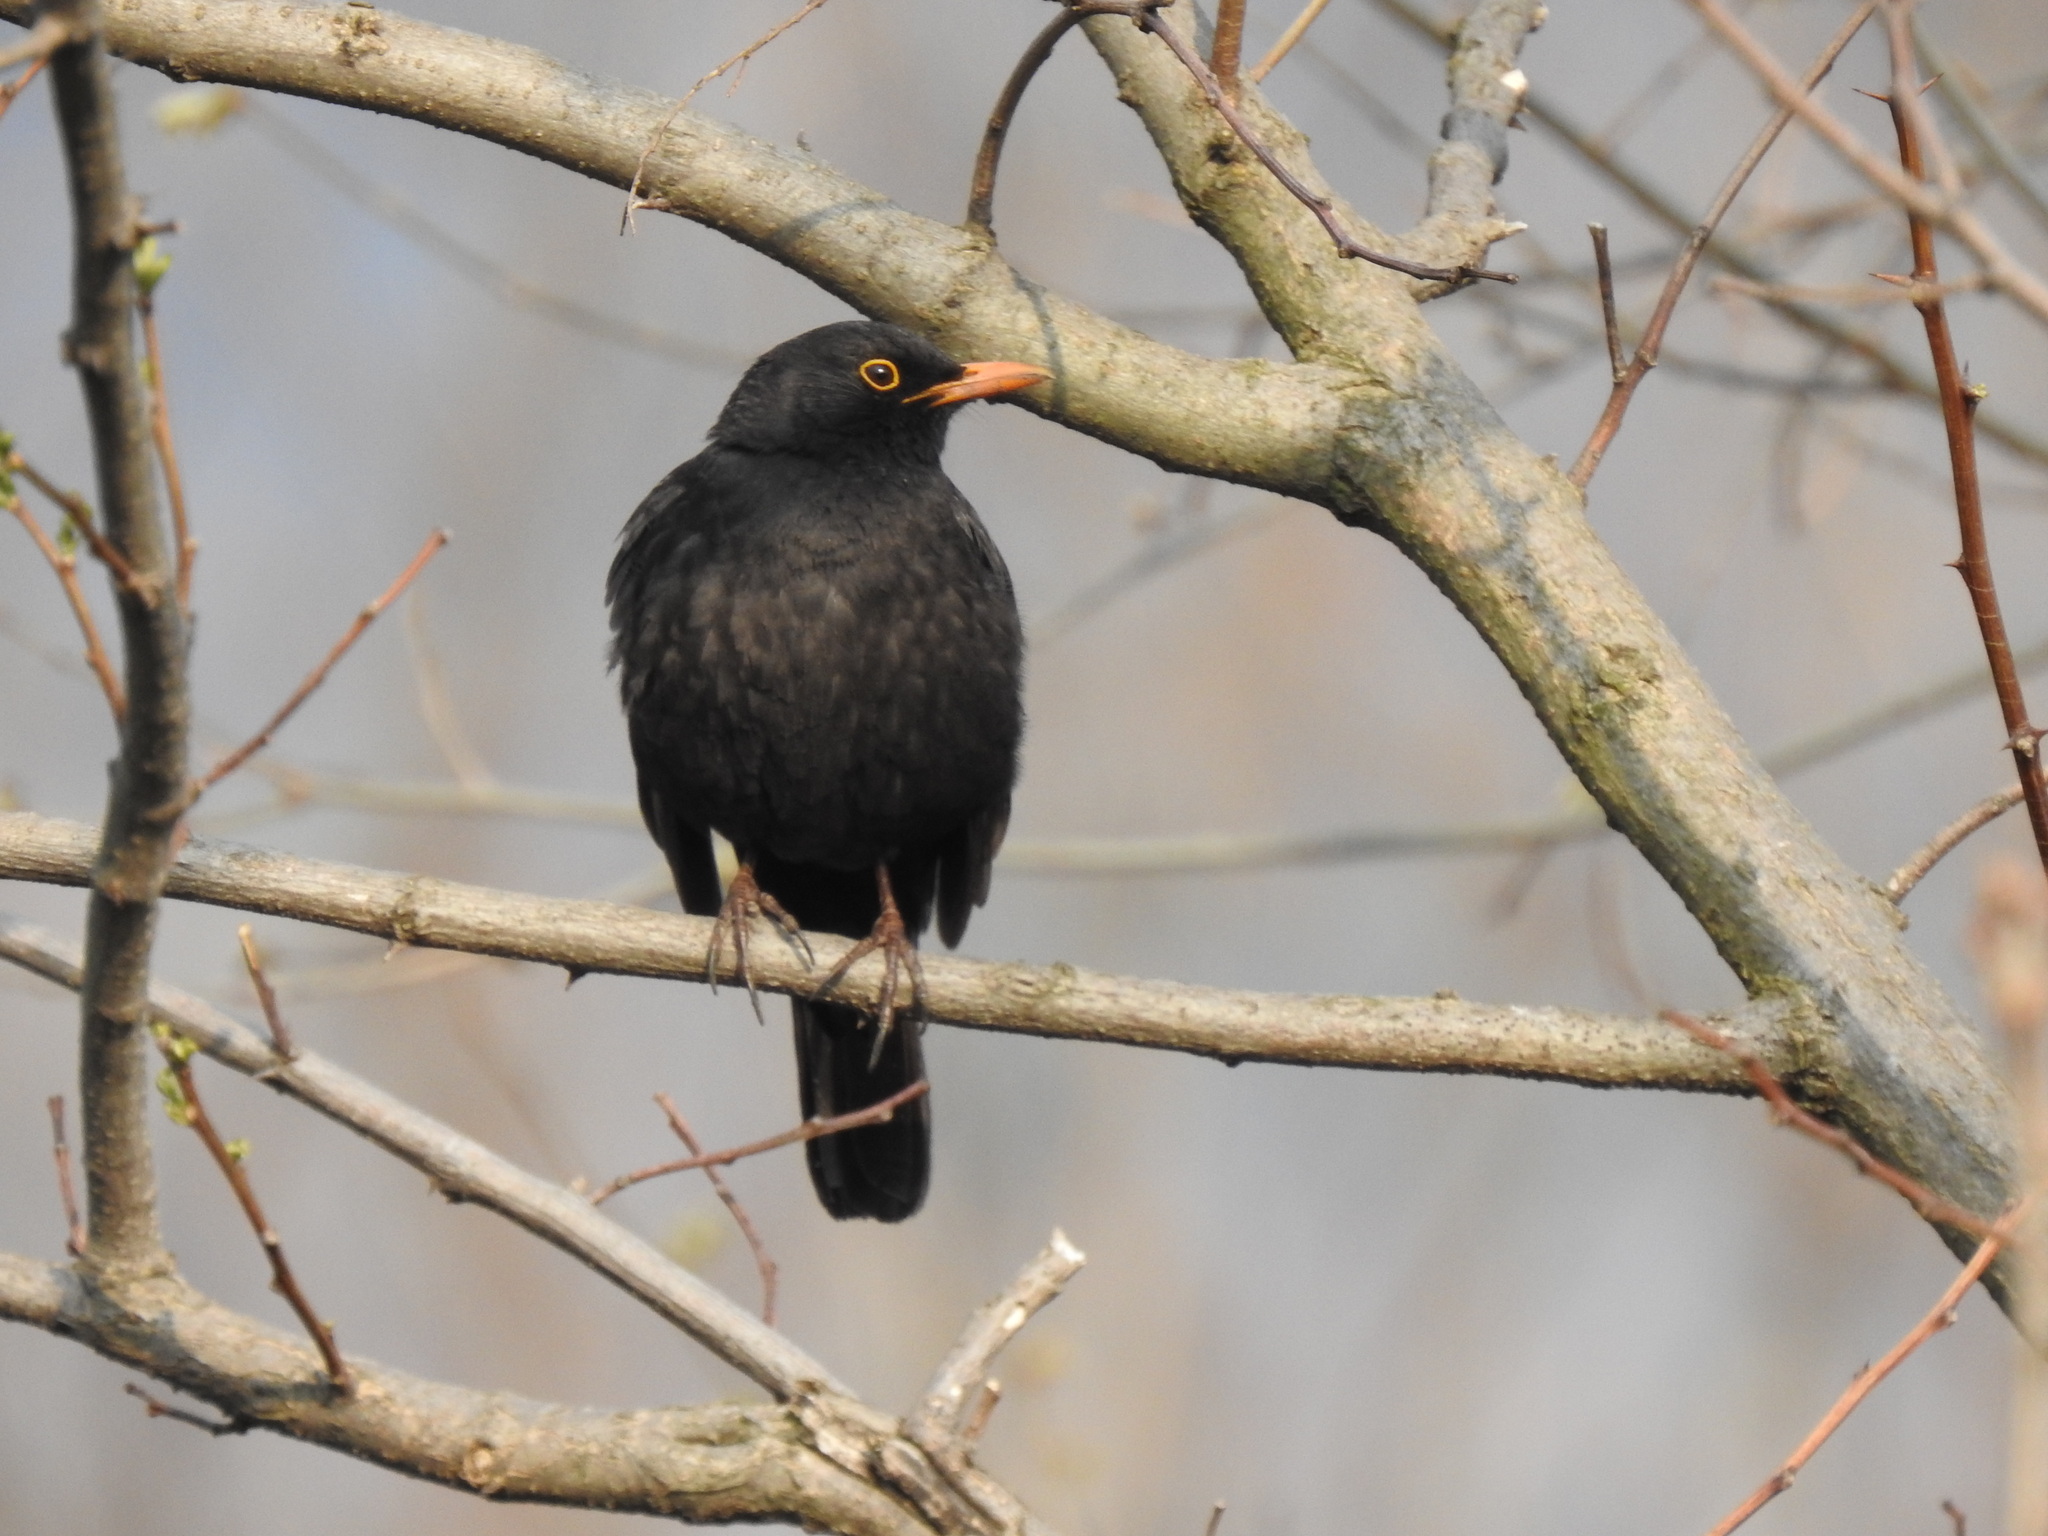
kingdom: Animalia
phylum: Chordata
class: Aves
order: Passeriformes
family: Turdidae
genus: Turdus
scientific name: Turdus merula
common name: Common blackbird
